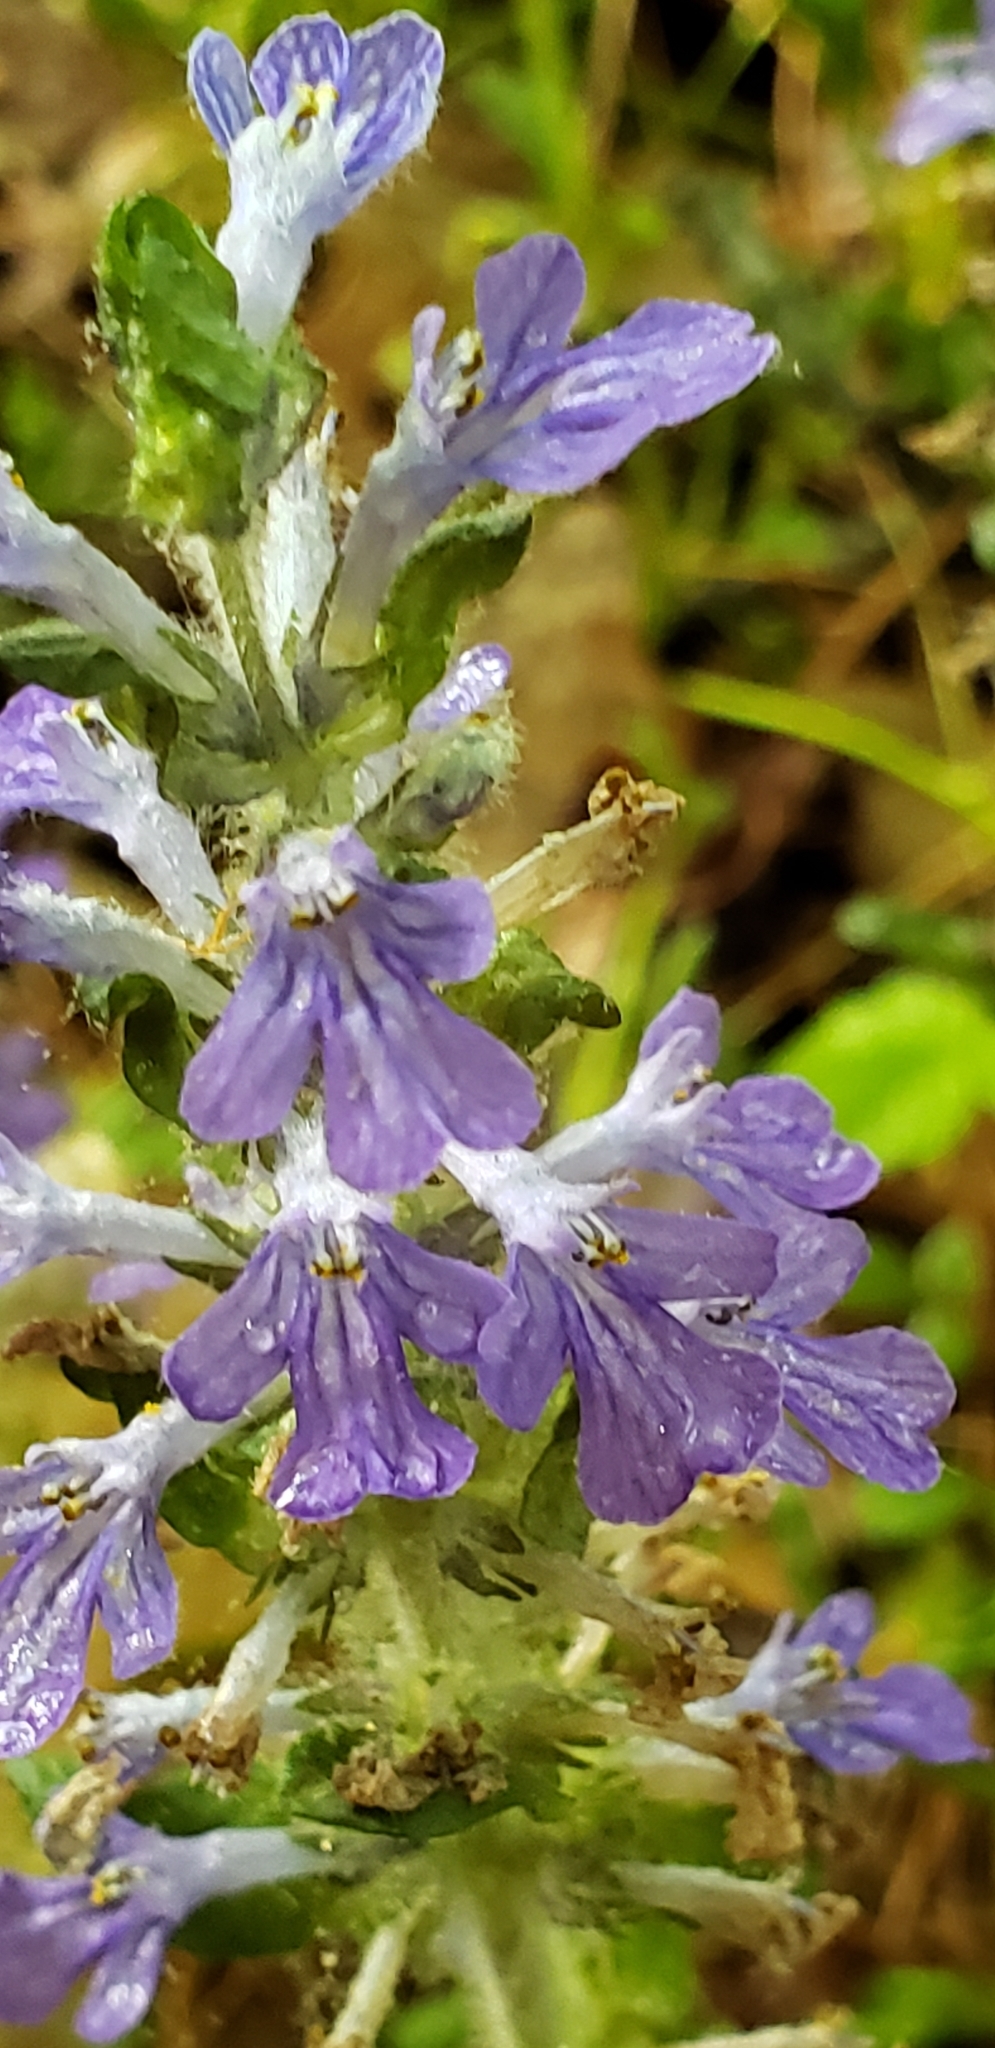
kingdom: Plantae
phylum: Tracheophyta
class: Magnoliopsida
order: Lamiales
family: Lamiaceae
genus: Ajuga
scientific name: Ajuga reptans
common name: Bugle
